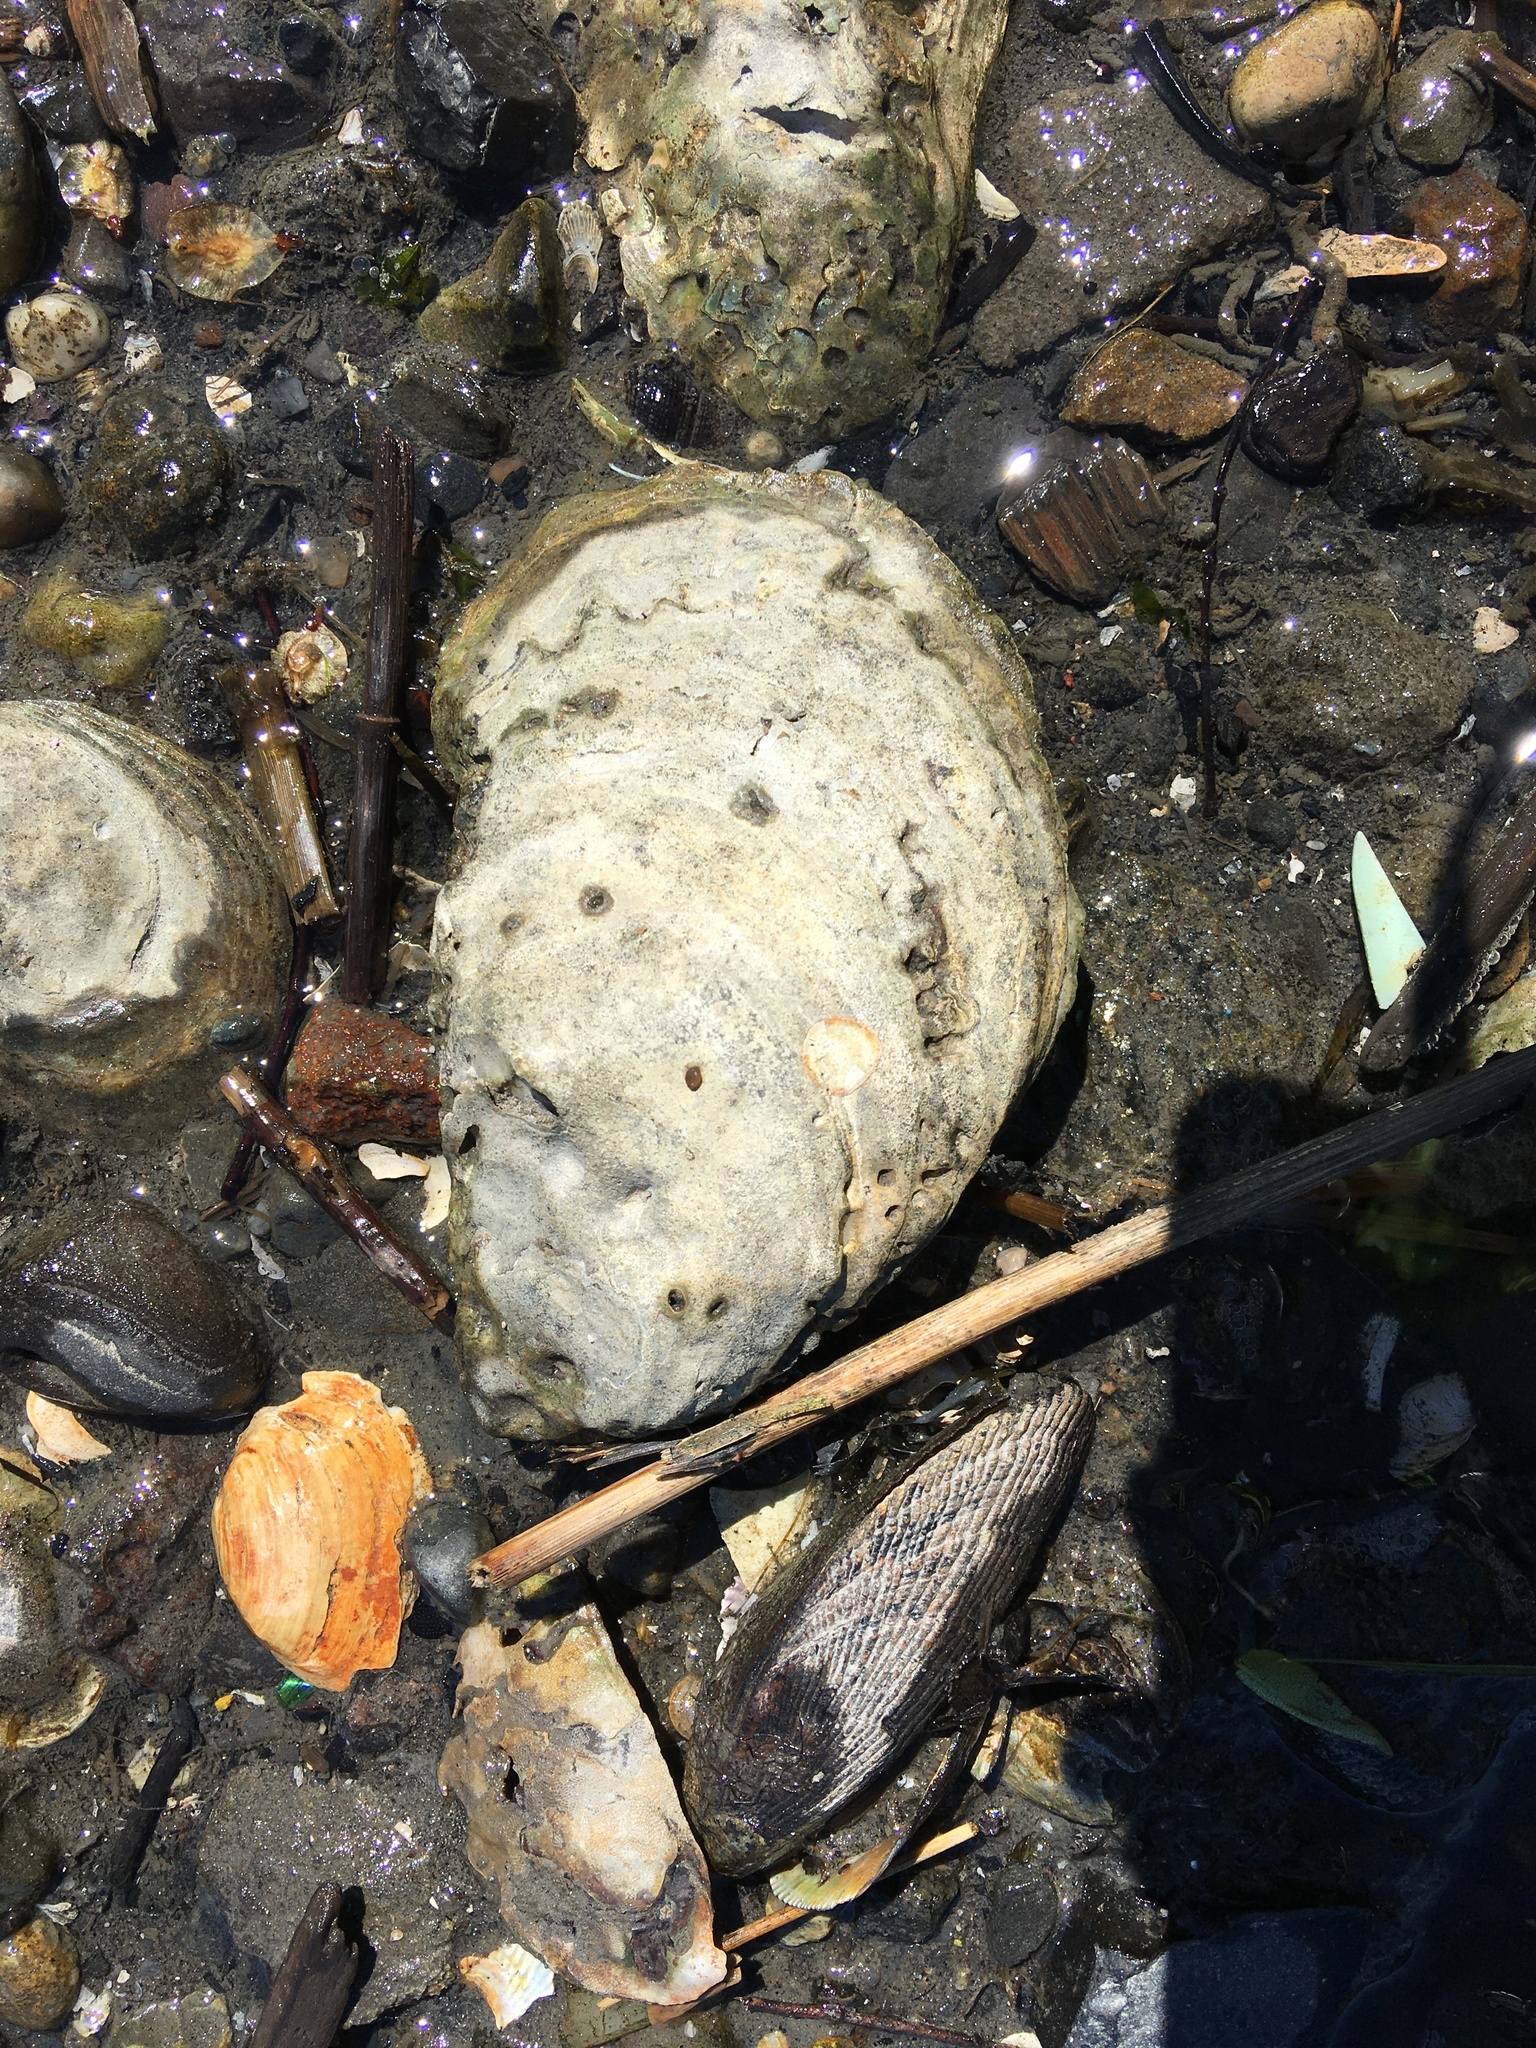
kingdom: Animalia
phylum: Mollusca
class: Bivalvia
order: Ostreida
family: Ostreidae
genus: Crassostrea
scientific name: Crassostrea virginica
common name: American oyster
